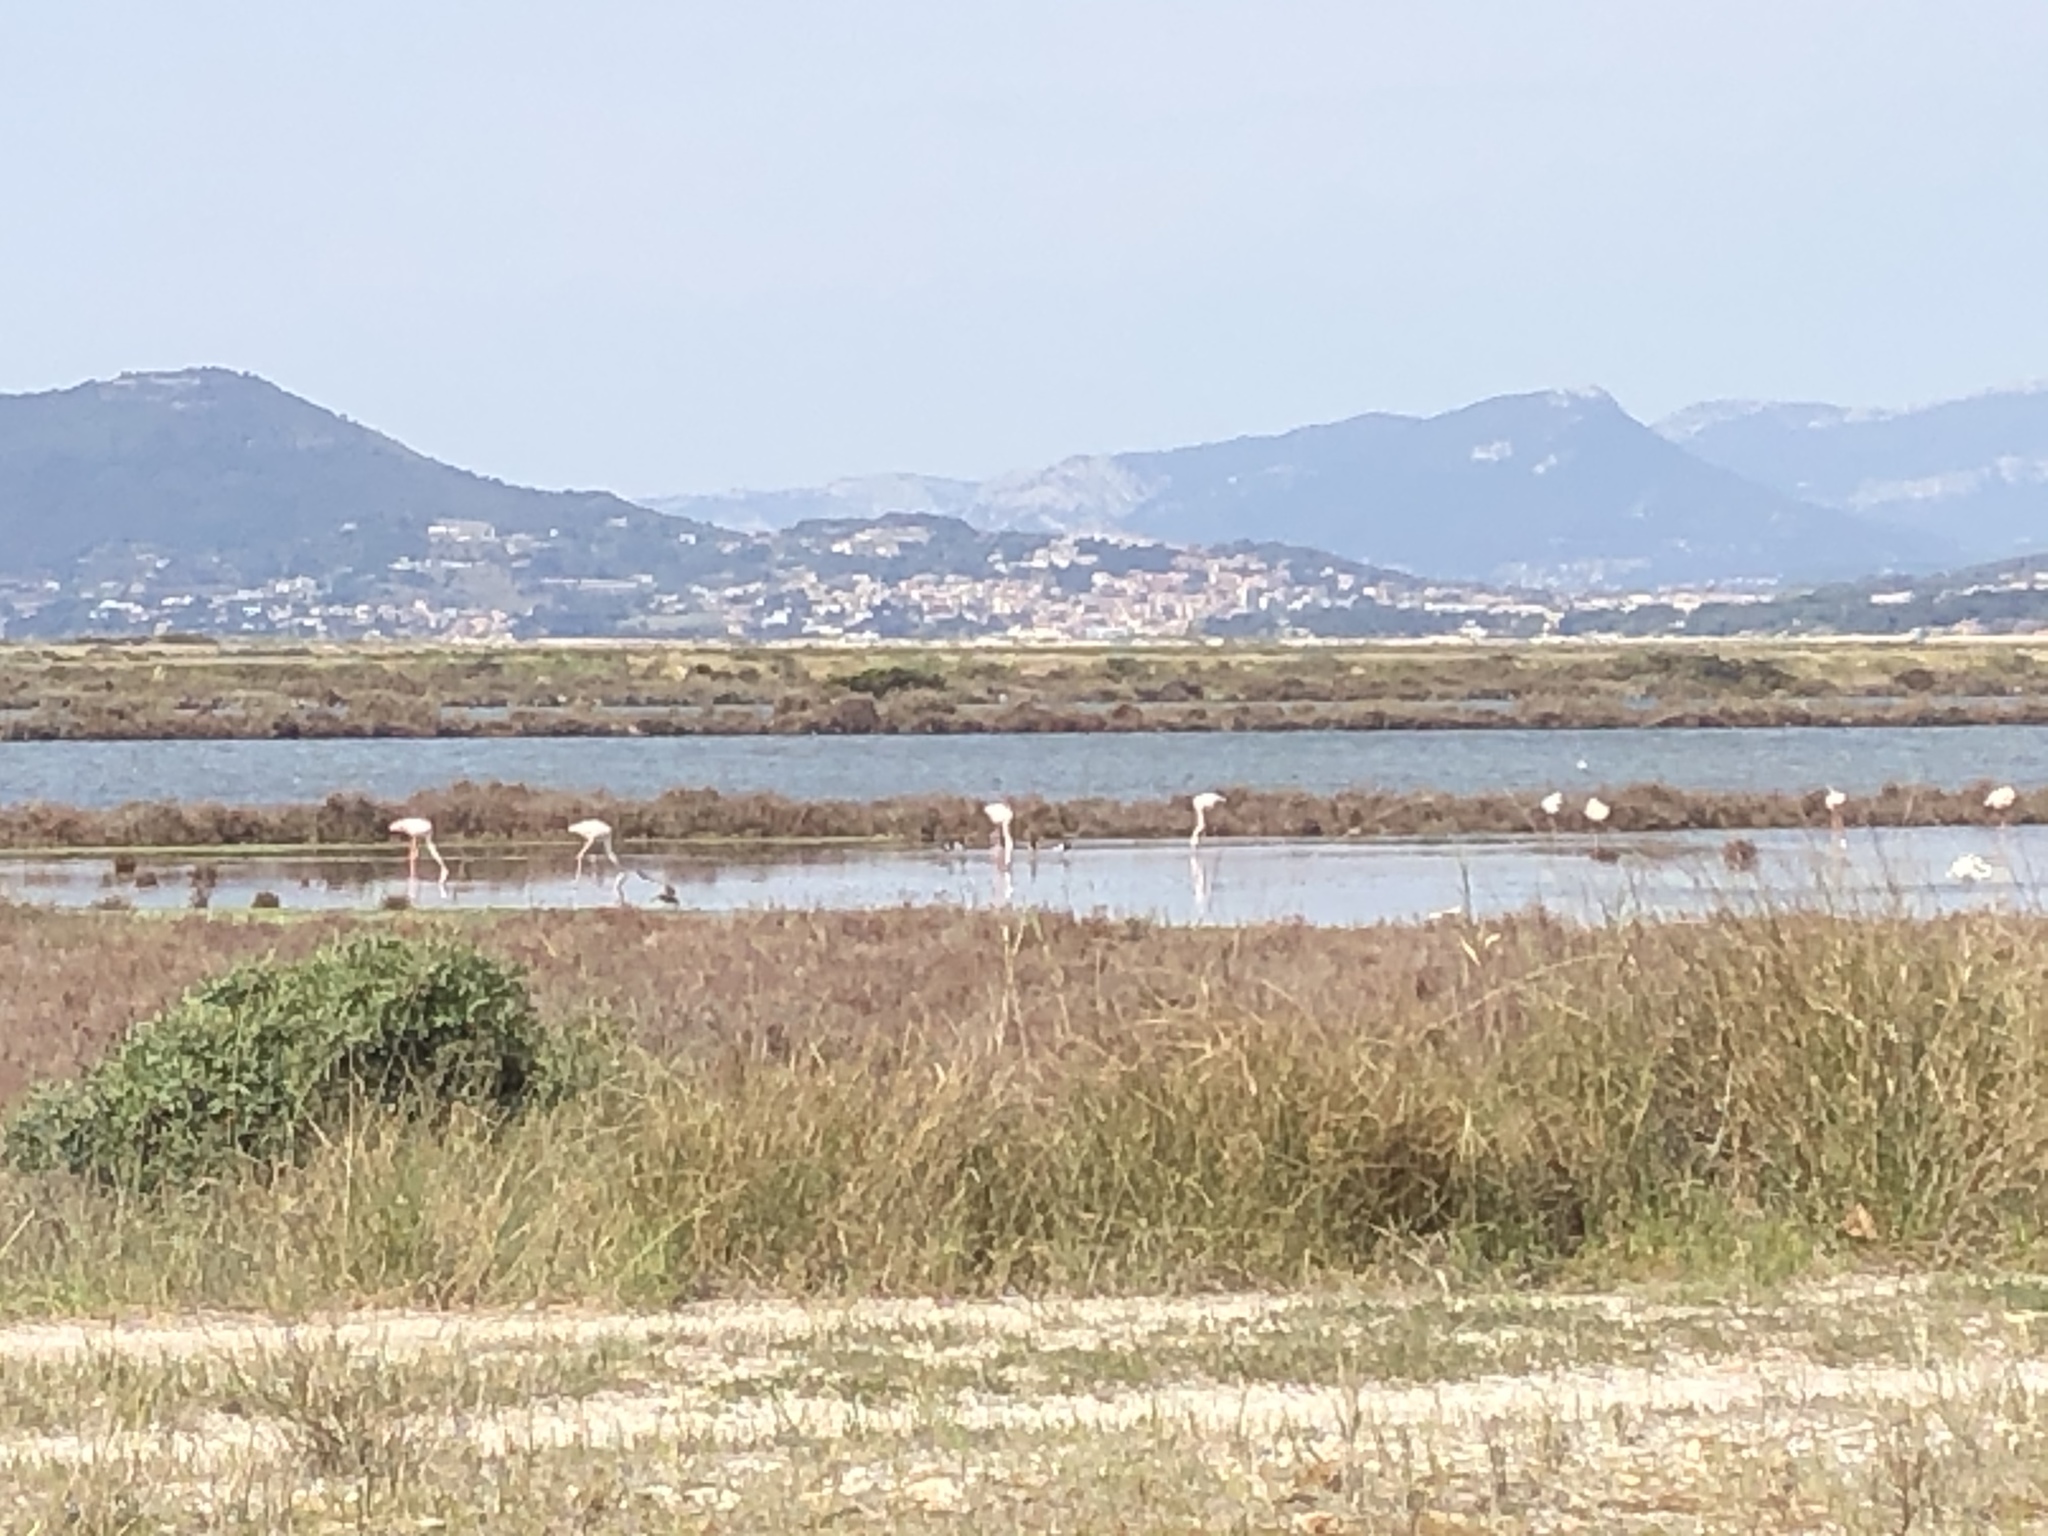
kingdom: Animalia
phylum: Chordata
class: Aves
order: Phoenicopteriformes
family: Phoenicopteridae
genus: Phoenicopterus
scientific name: Phoenicopterus roseus
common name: Greater flamingo
